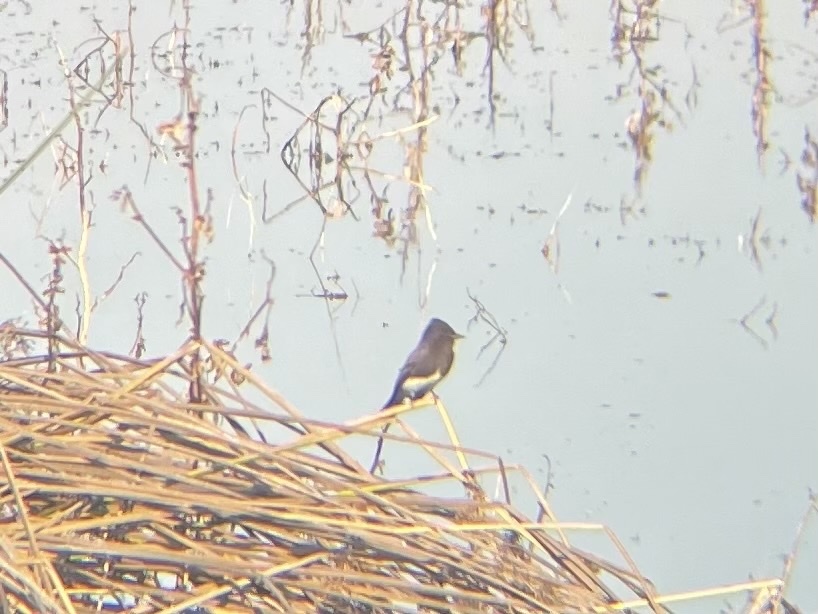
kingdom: Animalia
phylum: Chordata
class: Aves
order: Passeriformes
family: Tyrannidae
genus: Sayornis
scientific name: Sayornis nigricans
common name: Black phoebe
